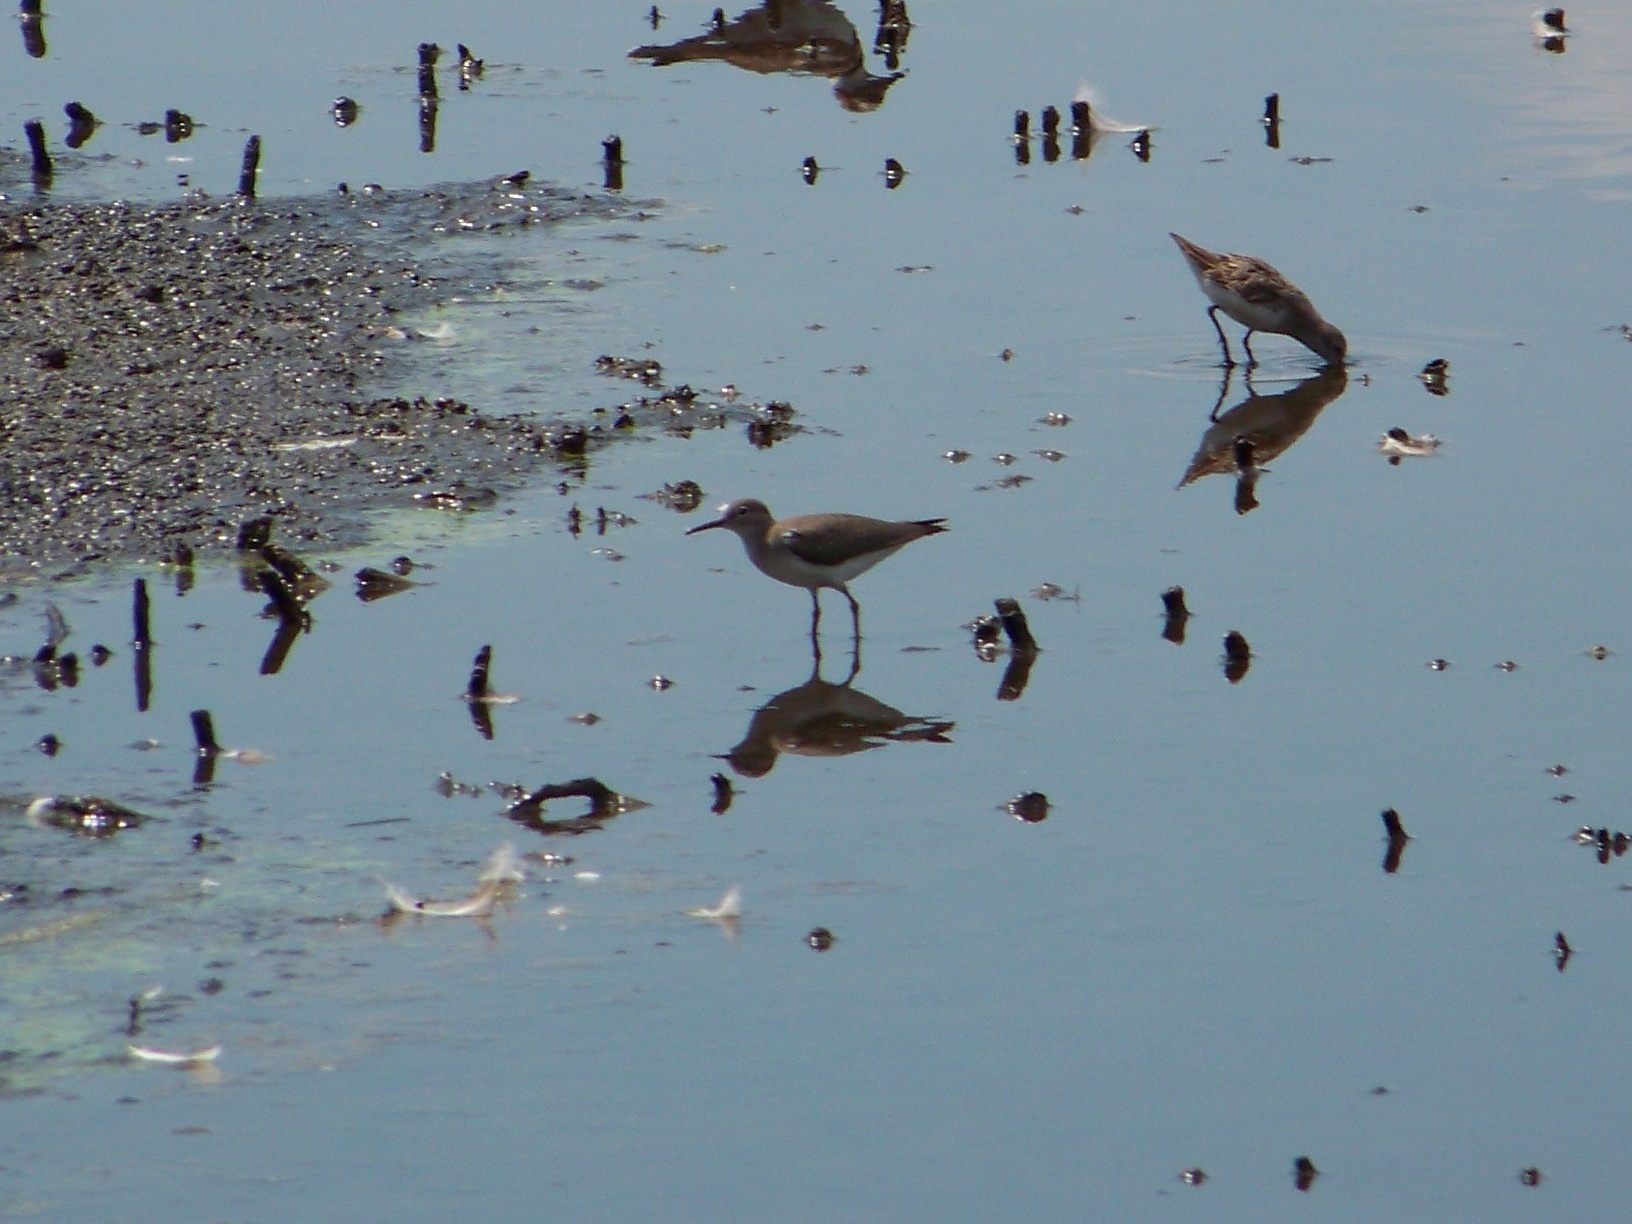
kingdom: Animalia
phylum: Chordata
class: Aves
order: Charadriiformes
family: Scolopacidae
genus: Actitis
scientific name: Actitis macularius
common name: Spotted sandpiper
